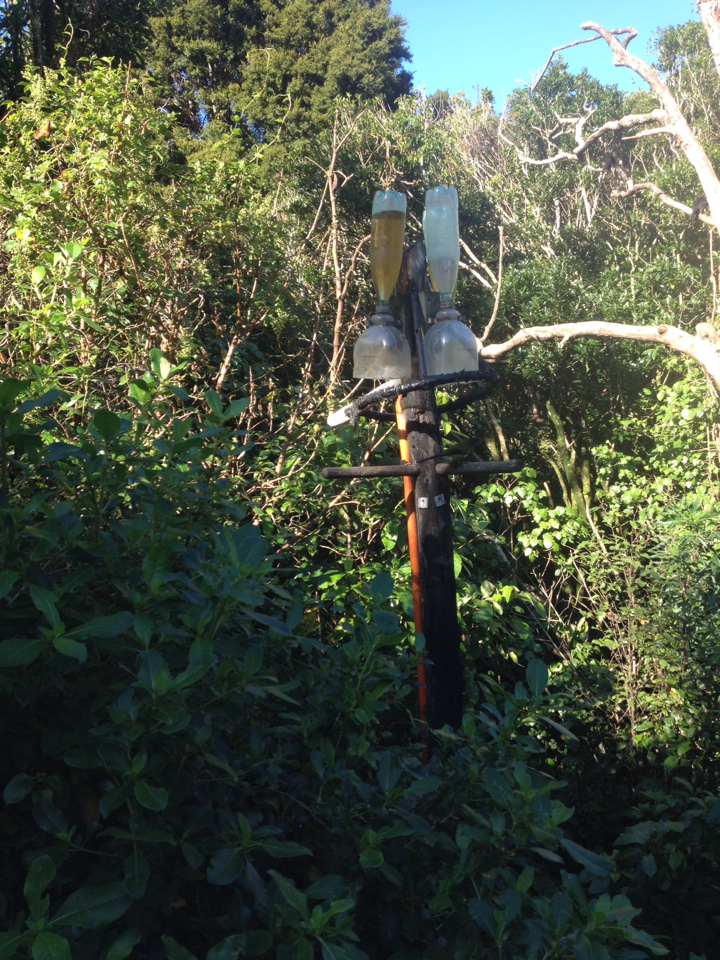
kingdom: Animalia
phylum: Chordata
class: Aves
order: Passeriformes
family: Meliphagidae
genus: Anthornis
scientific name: Anthornis melanura
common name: New zealand bellbird
